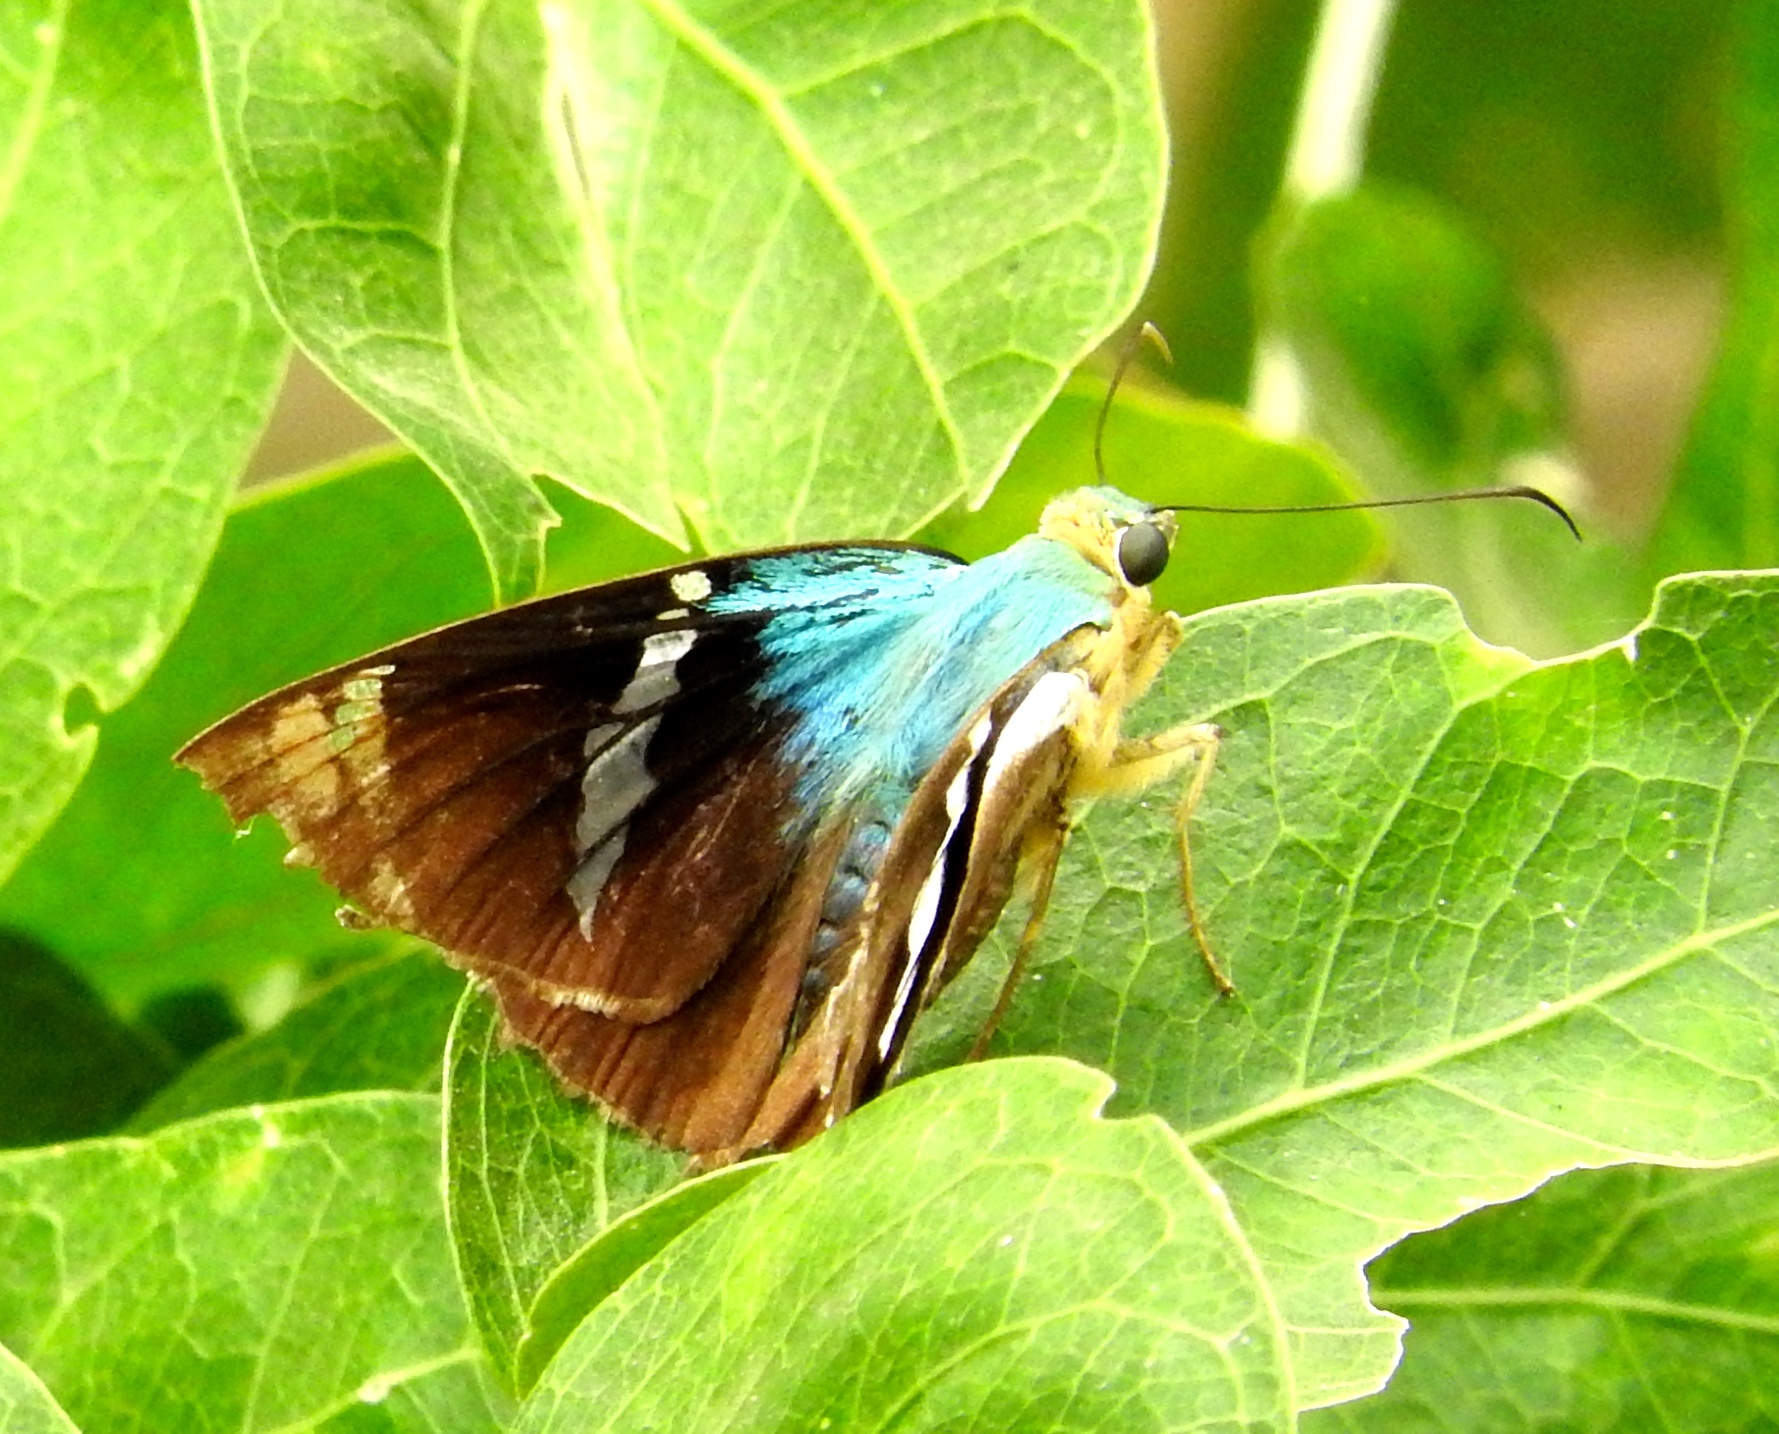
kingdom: Animalia
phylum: Arthropoda
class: Insecta
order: Lepidoptera
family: Hesperiidae
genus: Astraptes
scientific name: Astraptes fulgerator
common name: Two-barred flasher
